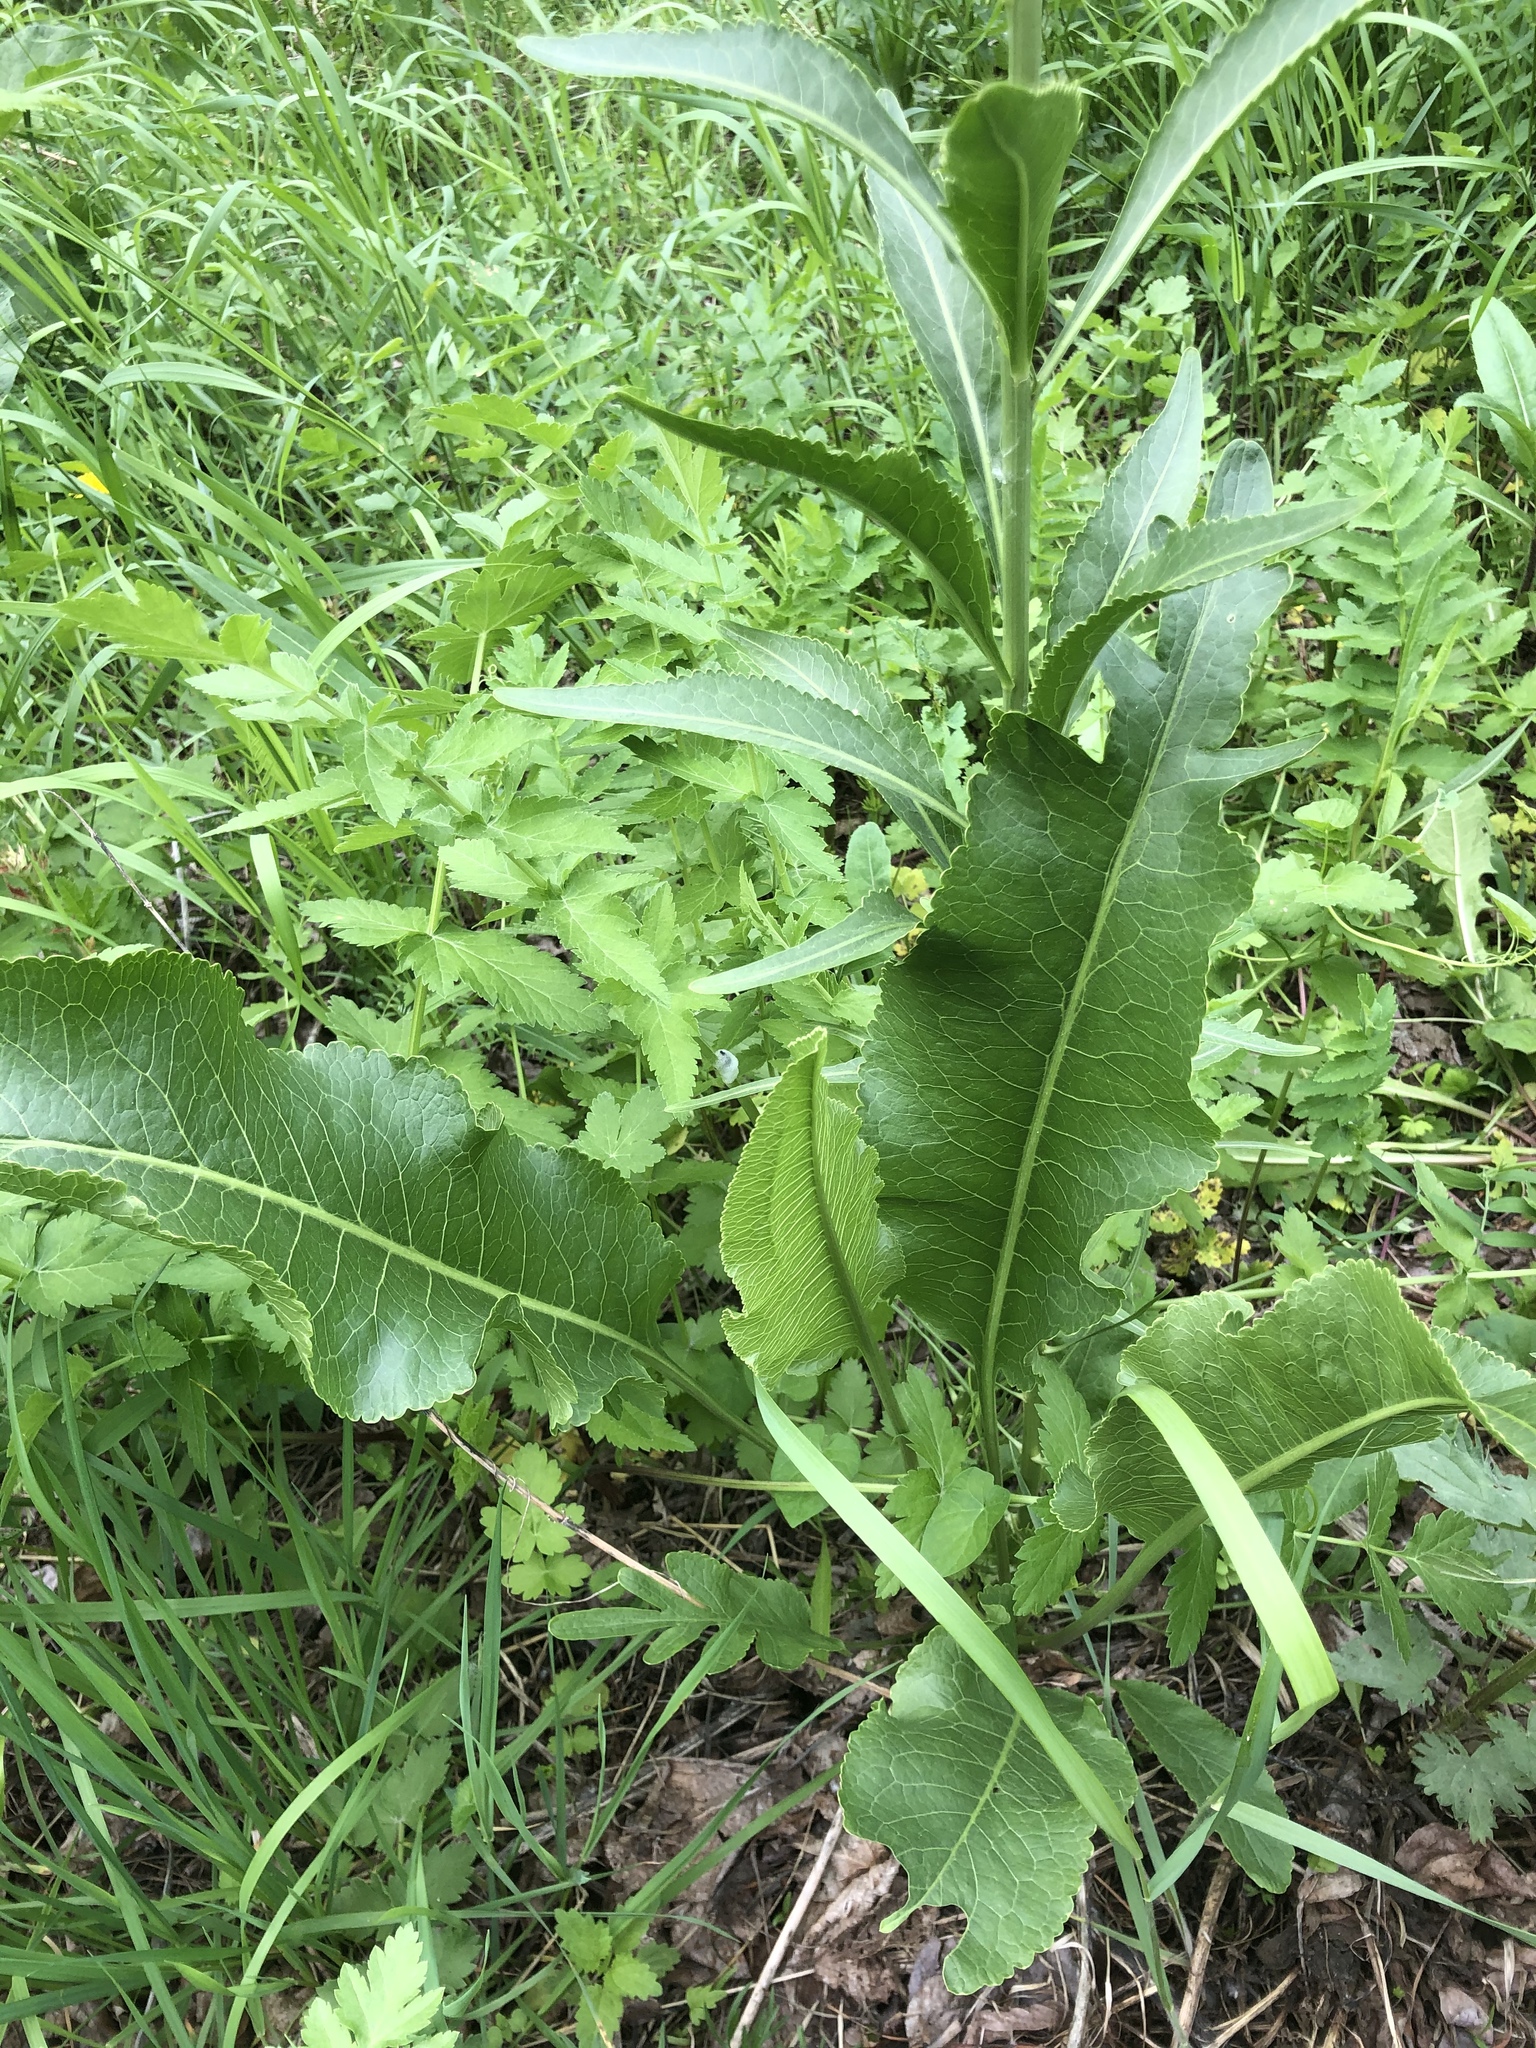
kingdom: Plantae
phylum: Tracheophyta
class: Magnoliopsida
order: Brassicales
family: Brassicaceae
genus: Armoracia
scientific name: Armoracia rusticana
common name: Horseradish
